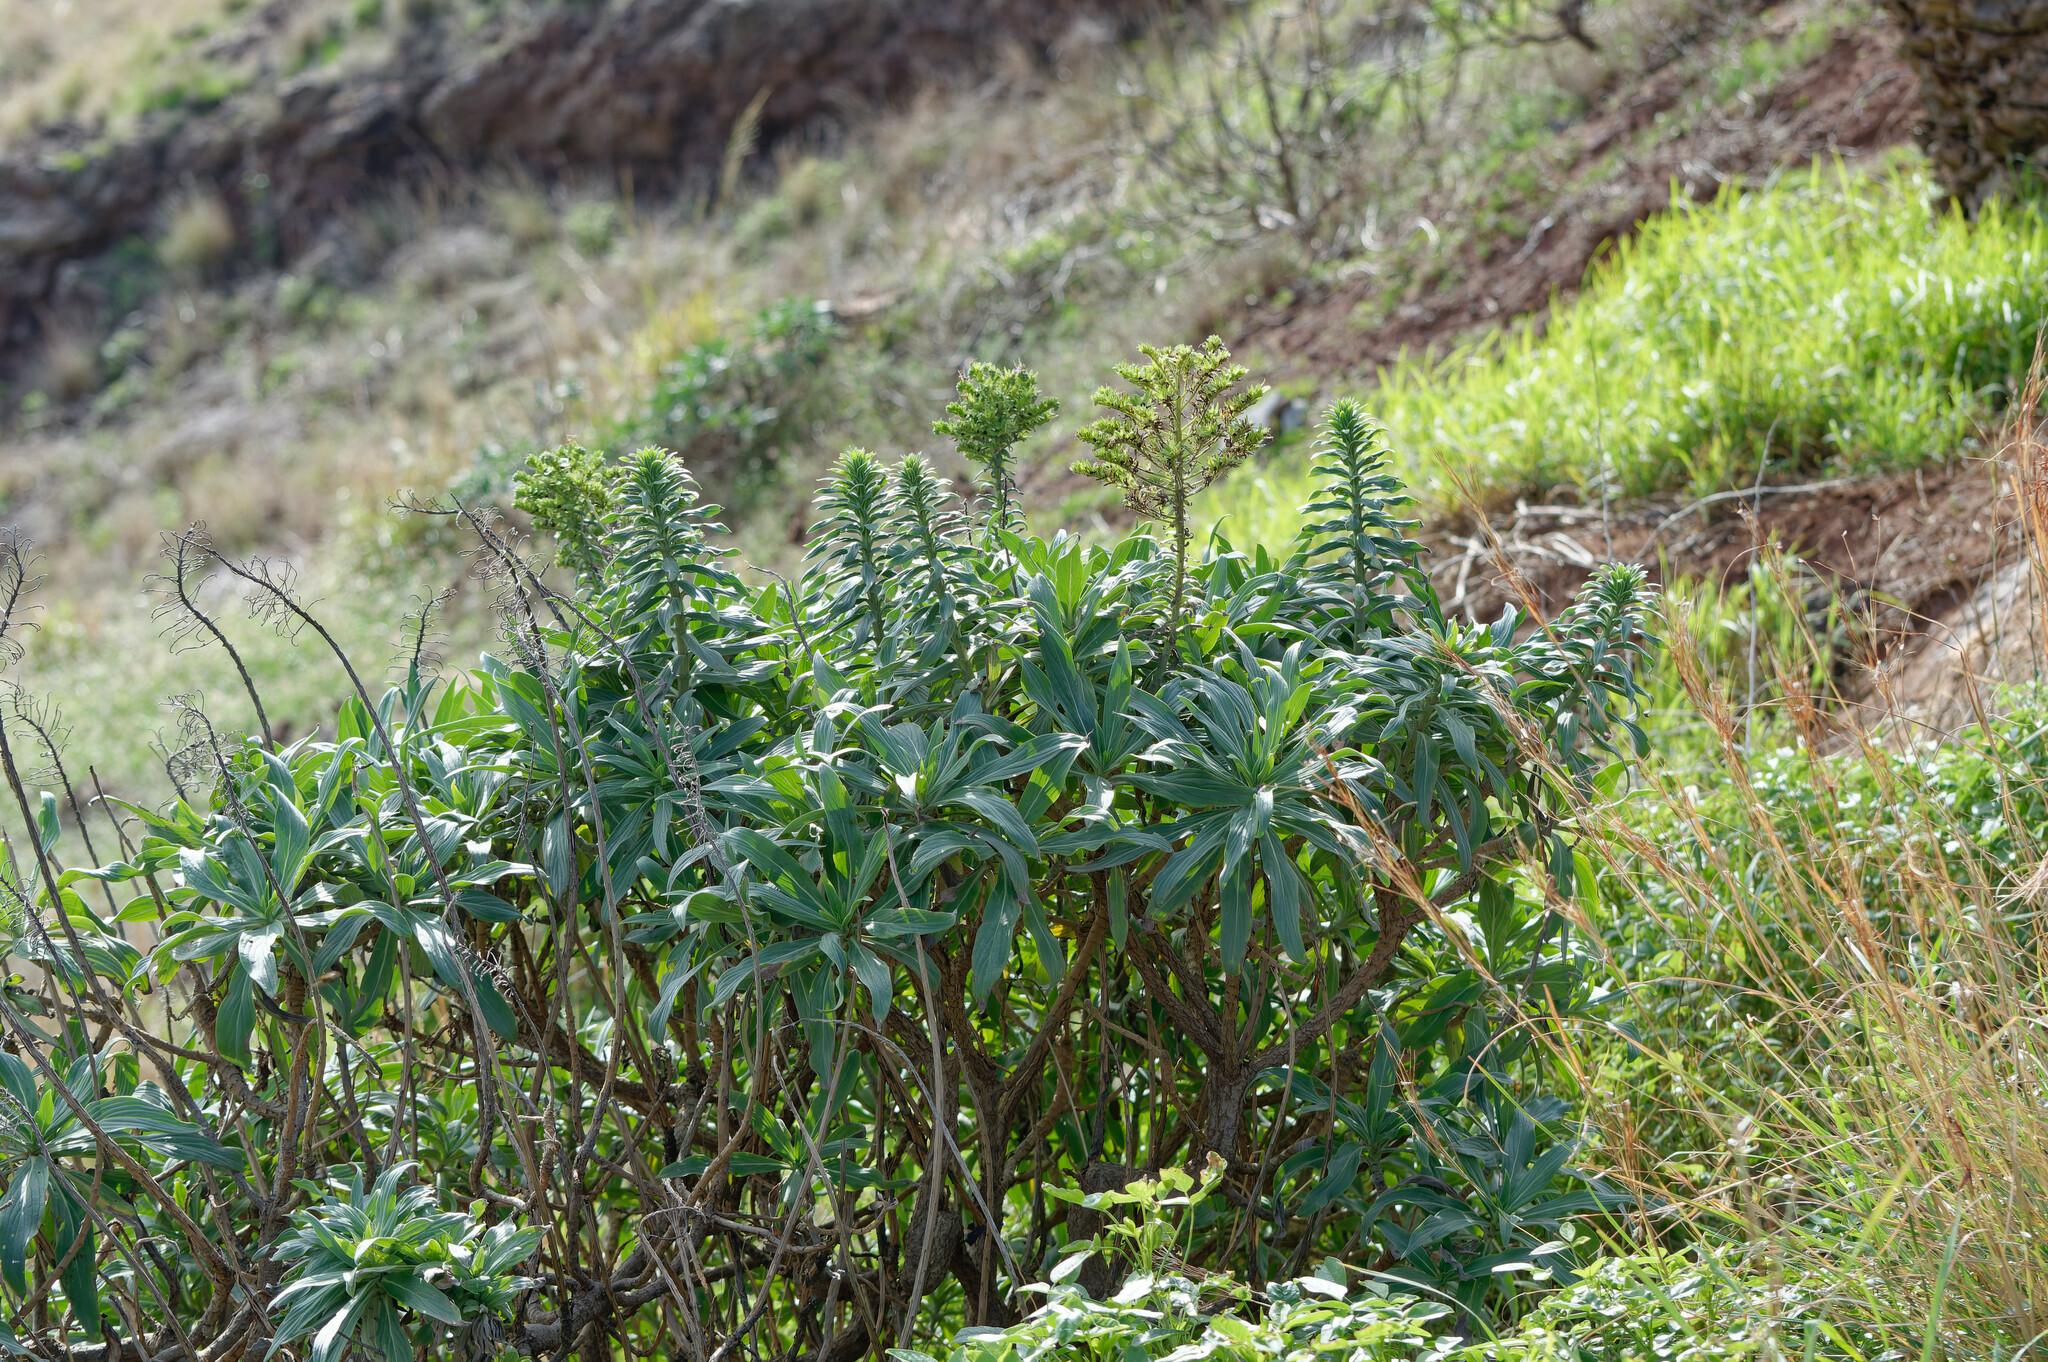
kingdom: Plantae
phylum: Tracheophyta
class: Magnoliopsida
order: Boraginales
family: Boraginaceae
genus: Echium
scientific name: Echium nervosum
